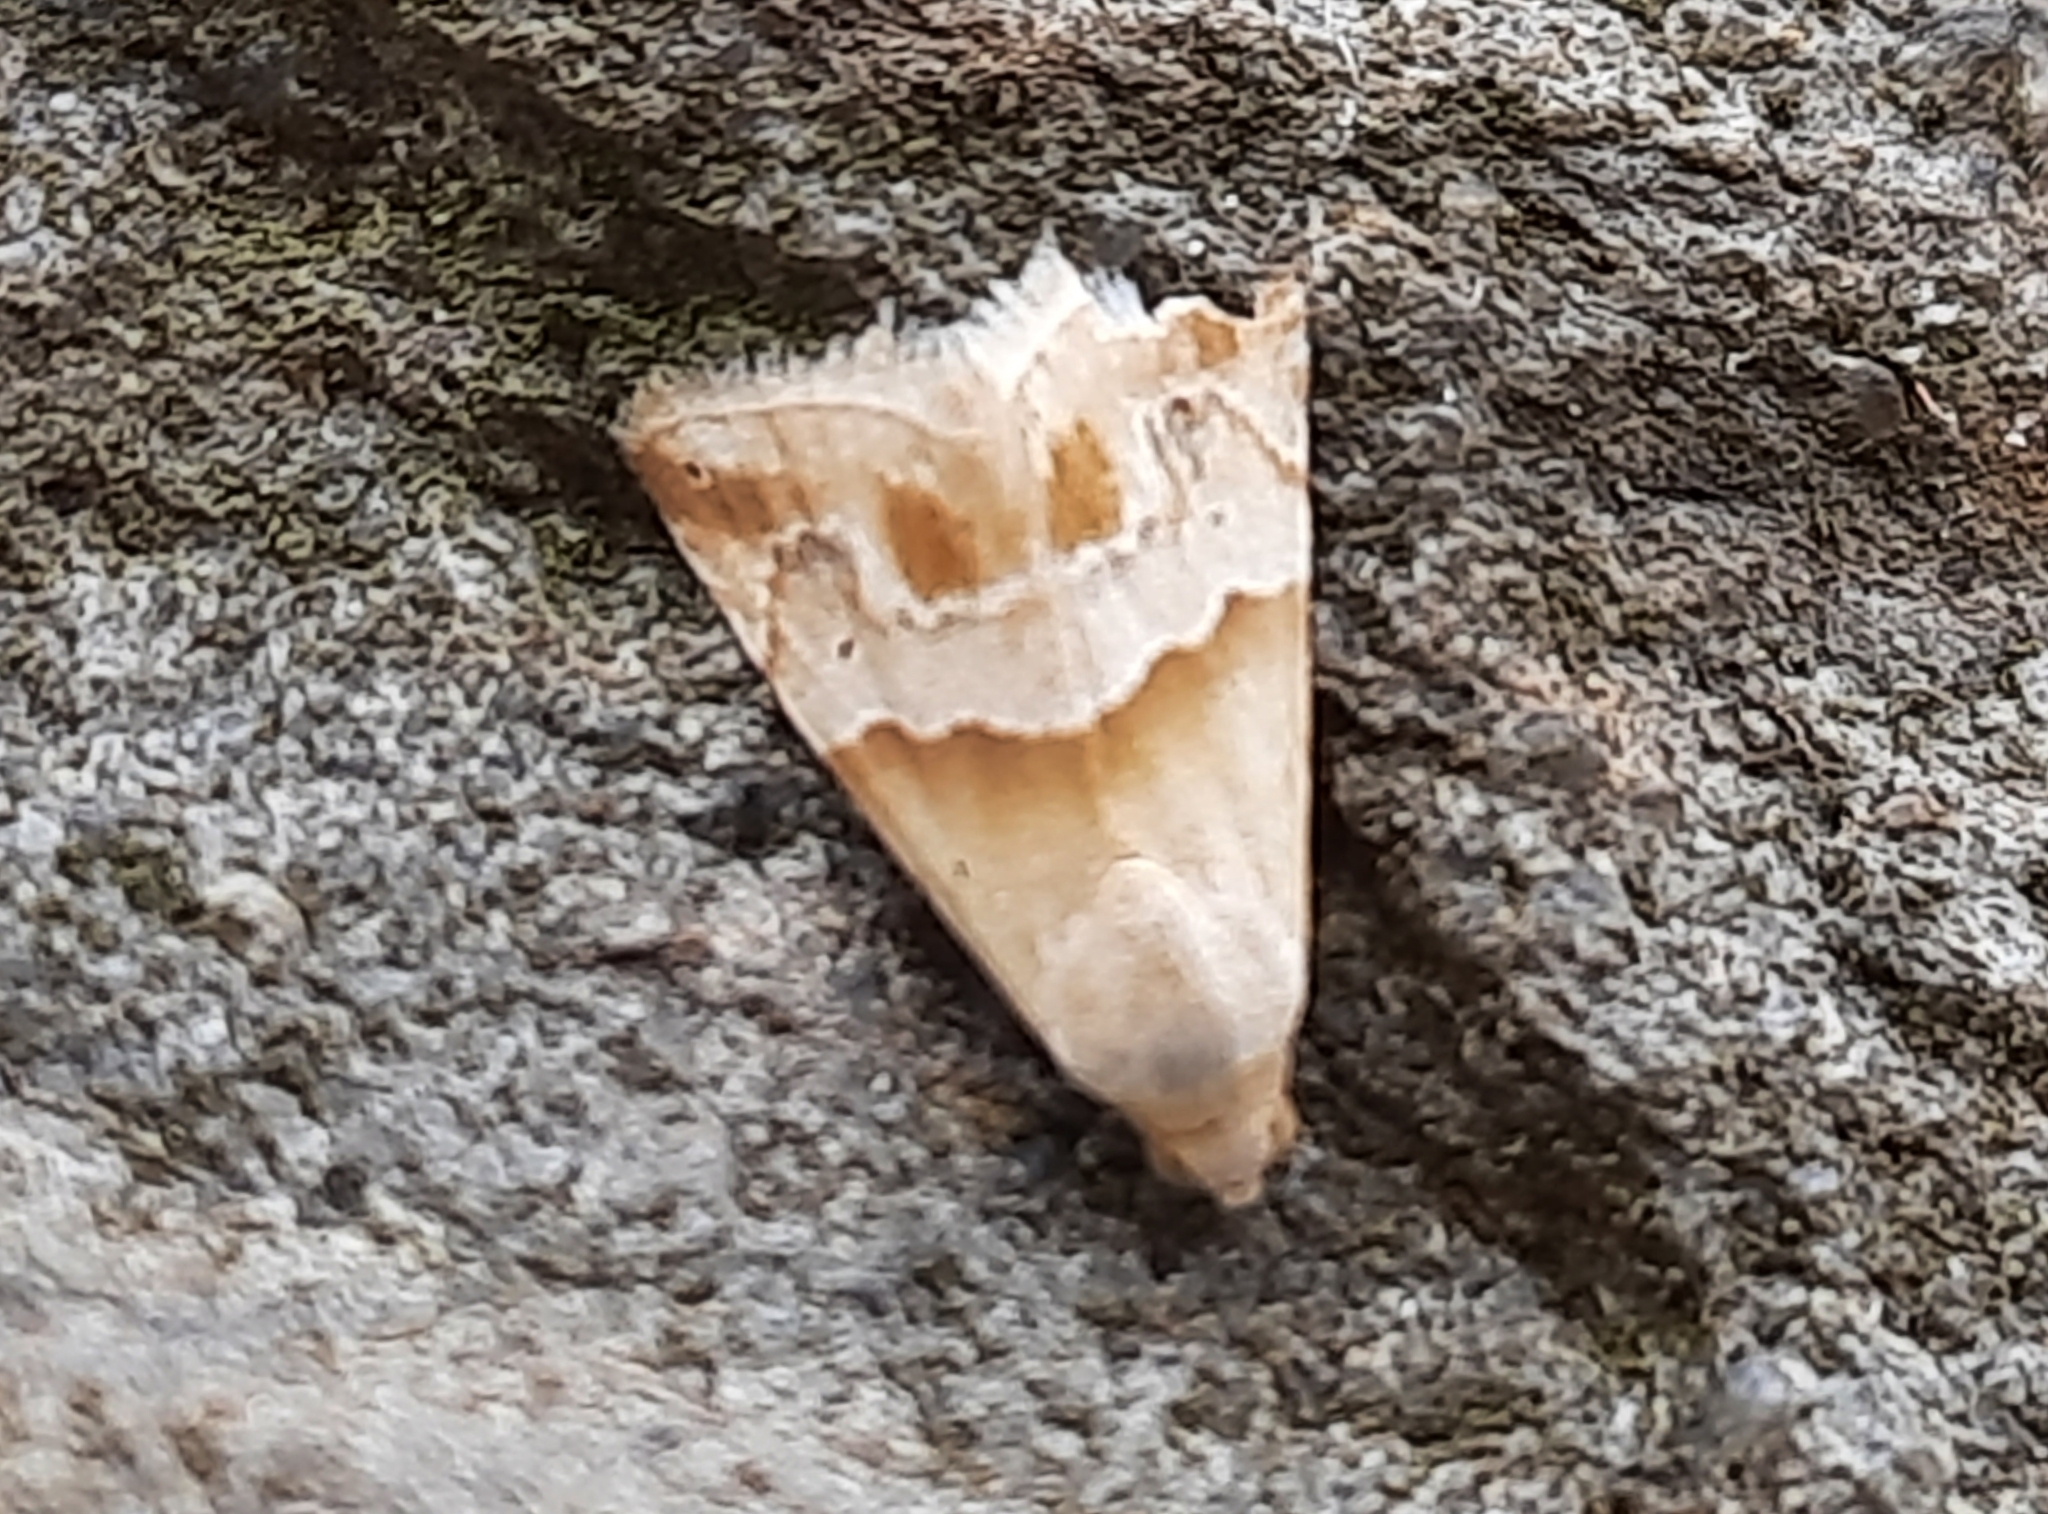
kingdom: Animalia
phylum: Arthropoda
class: Insecta
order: Lepidoptera
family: Noctuidae
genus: Eublemma
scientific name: Eublemma parva
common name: Small marbled
